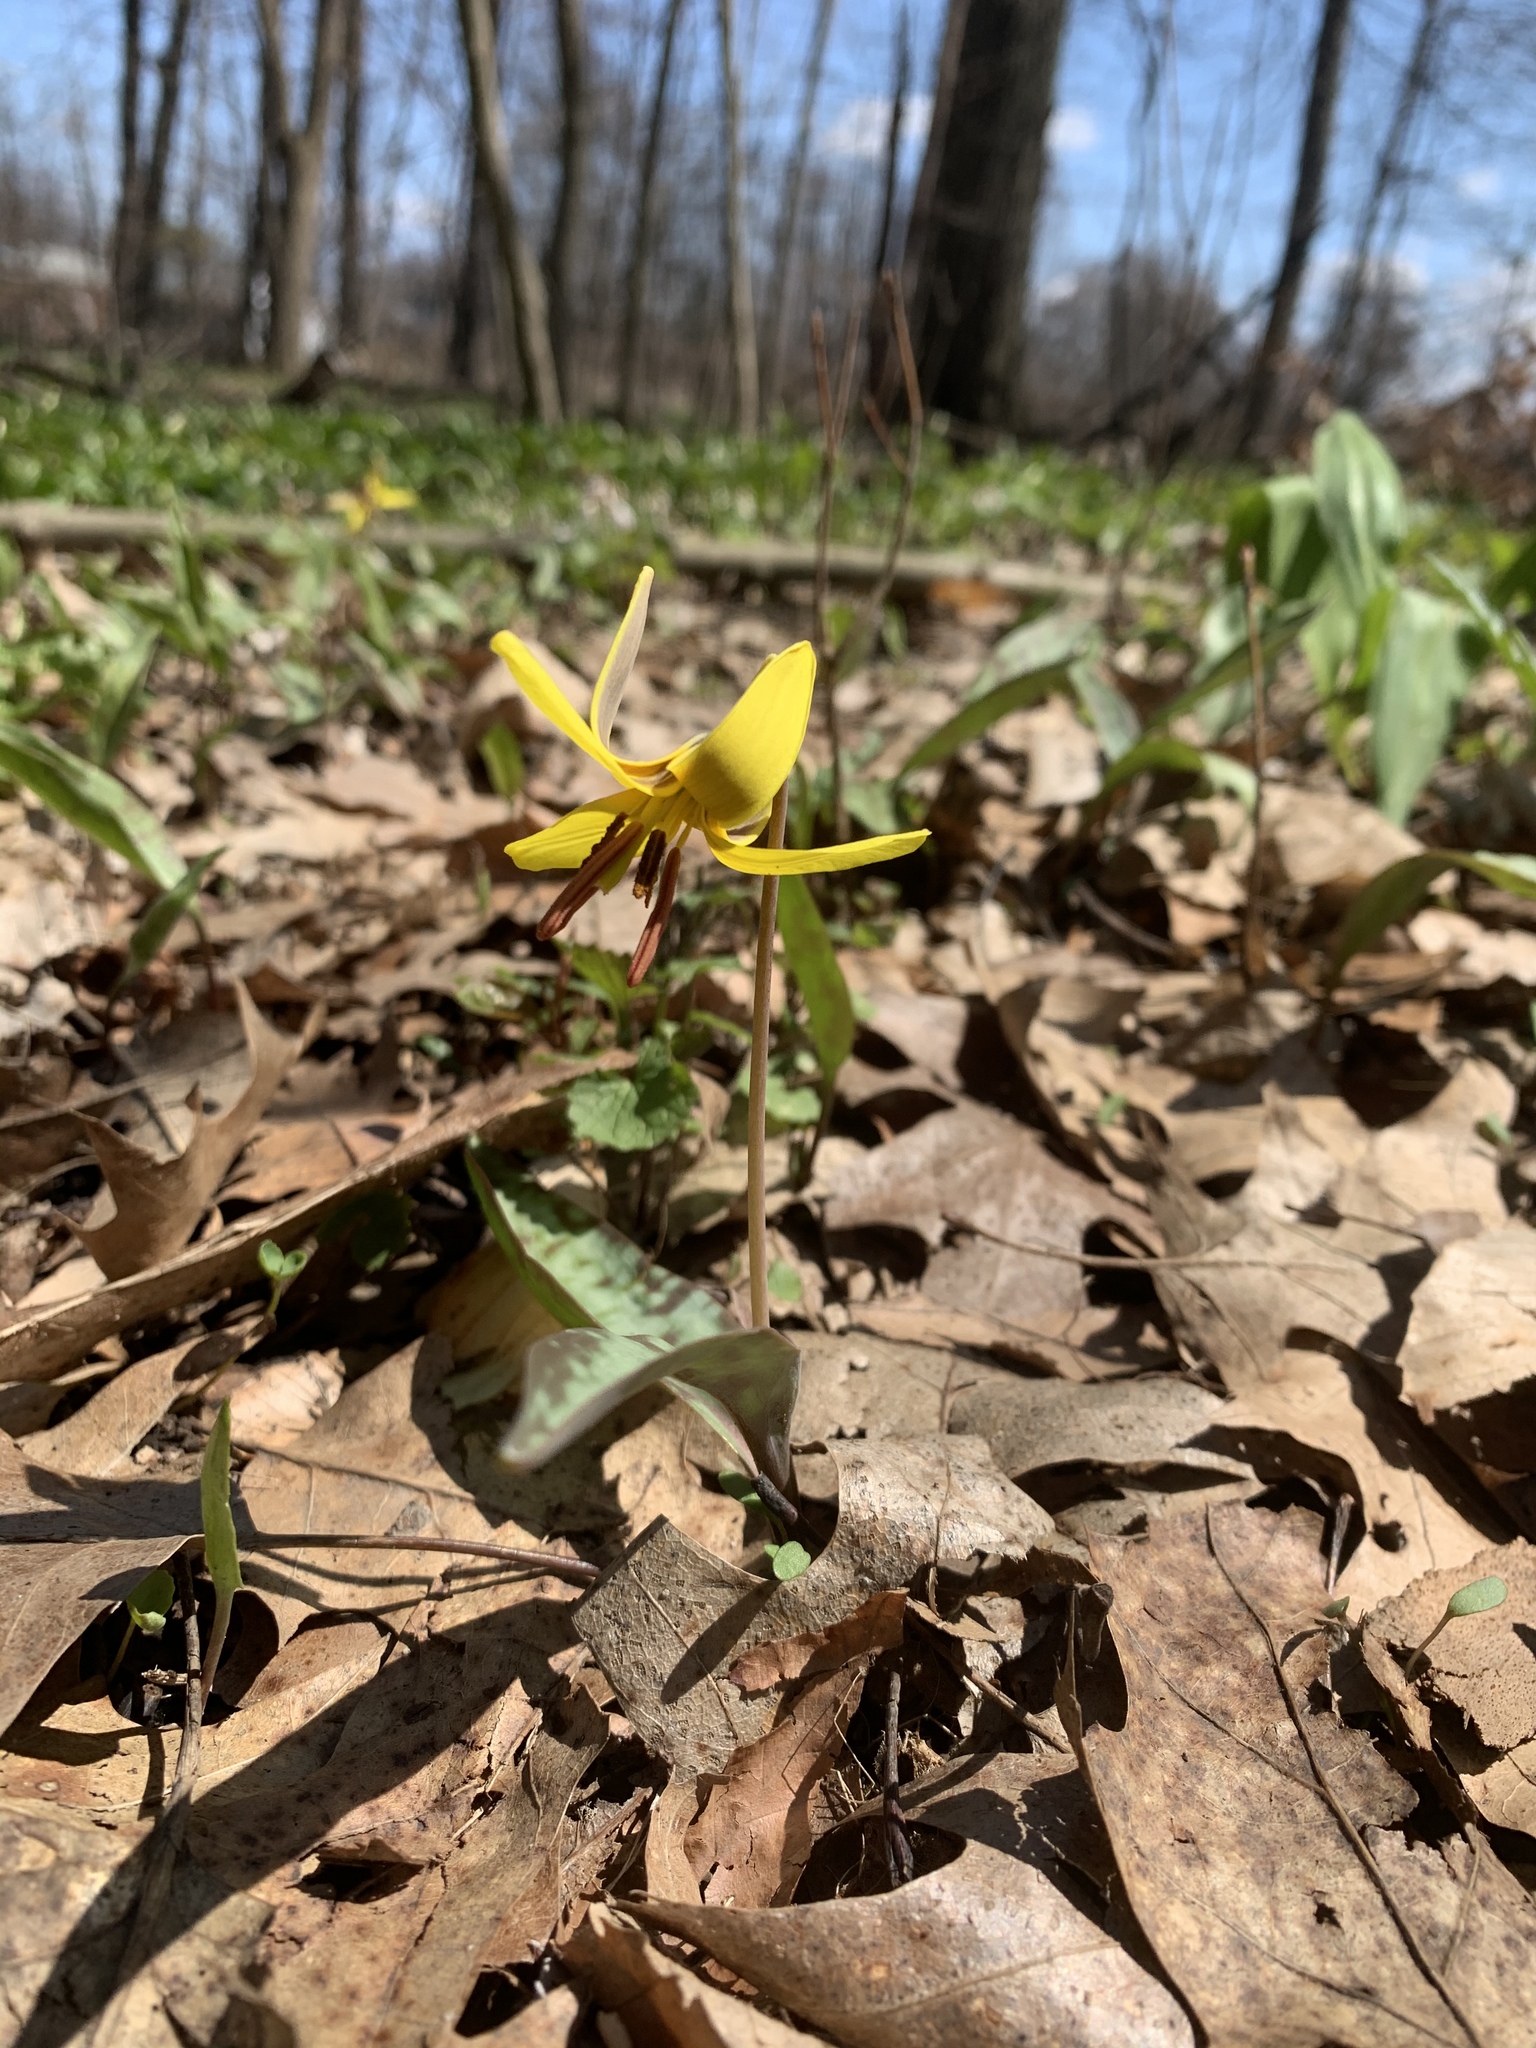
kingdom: Plantae
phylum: Tracheophyta
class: Liliopsida
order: Liliales
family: Liliaceae
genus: Erythronium
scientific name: Erythronium americanum
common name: Yellow adder's-tongue
